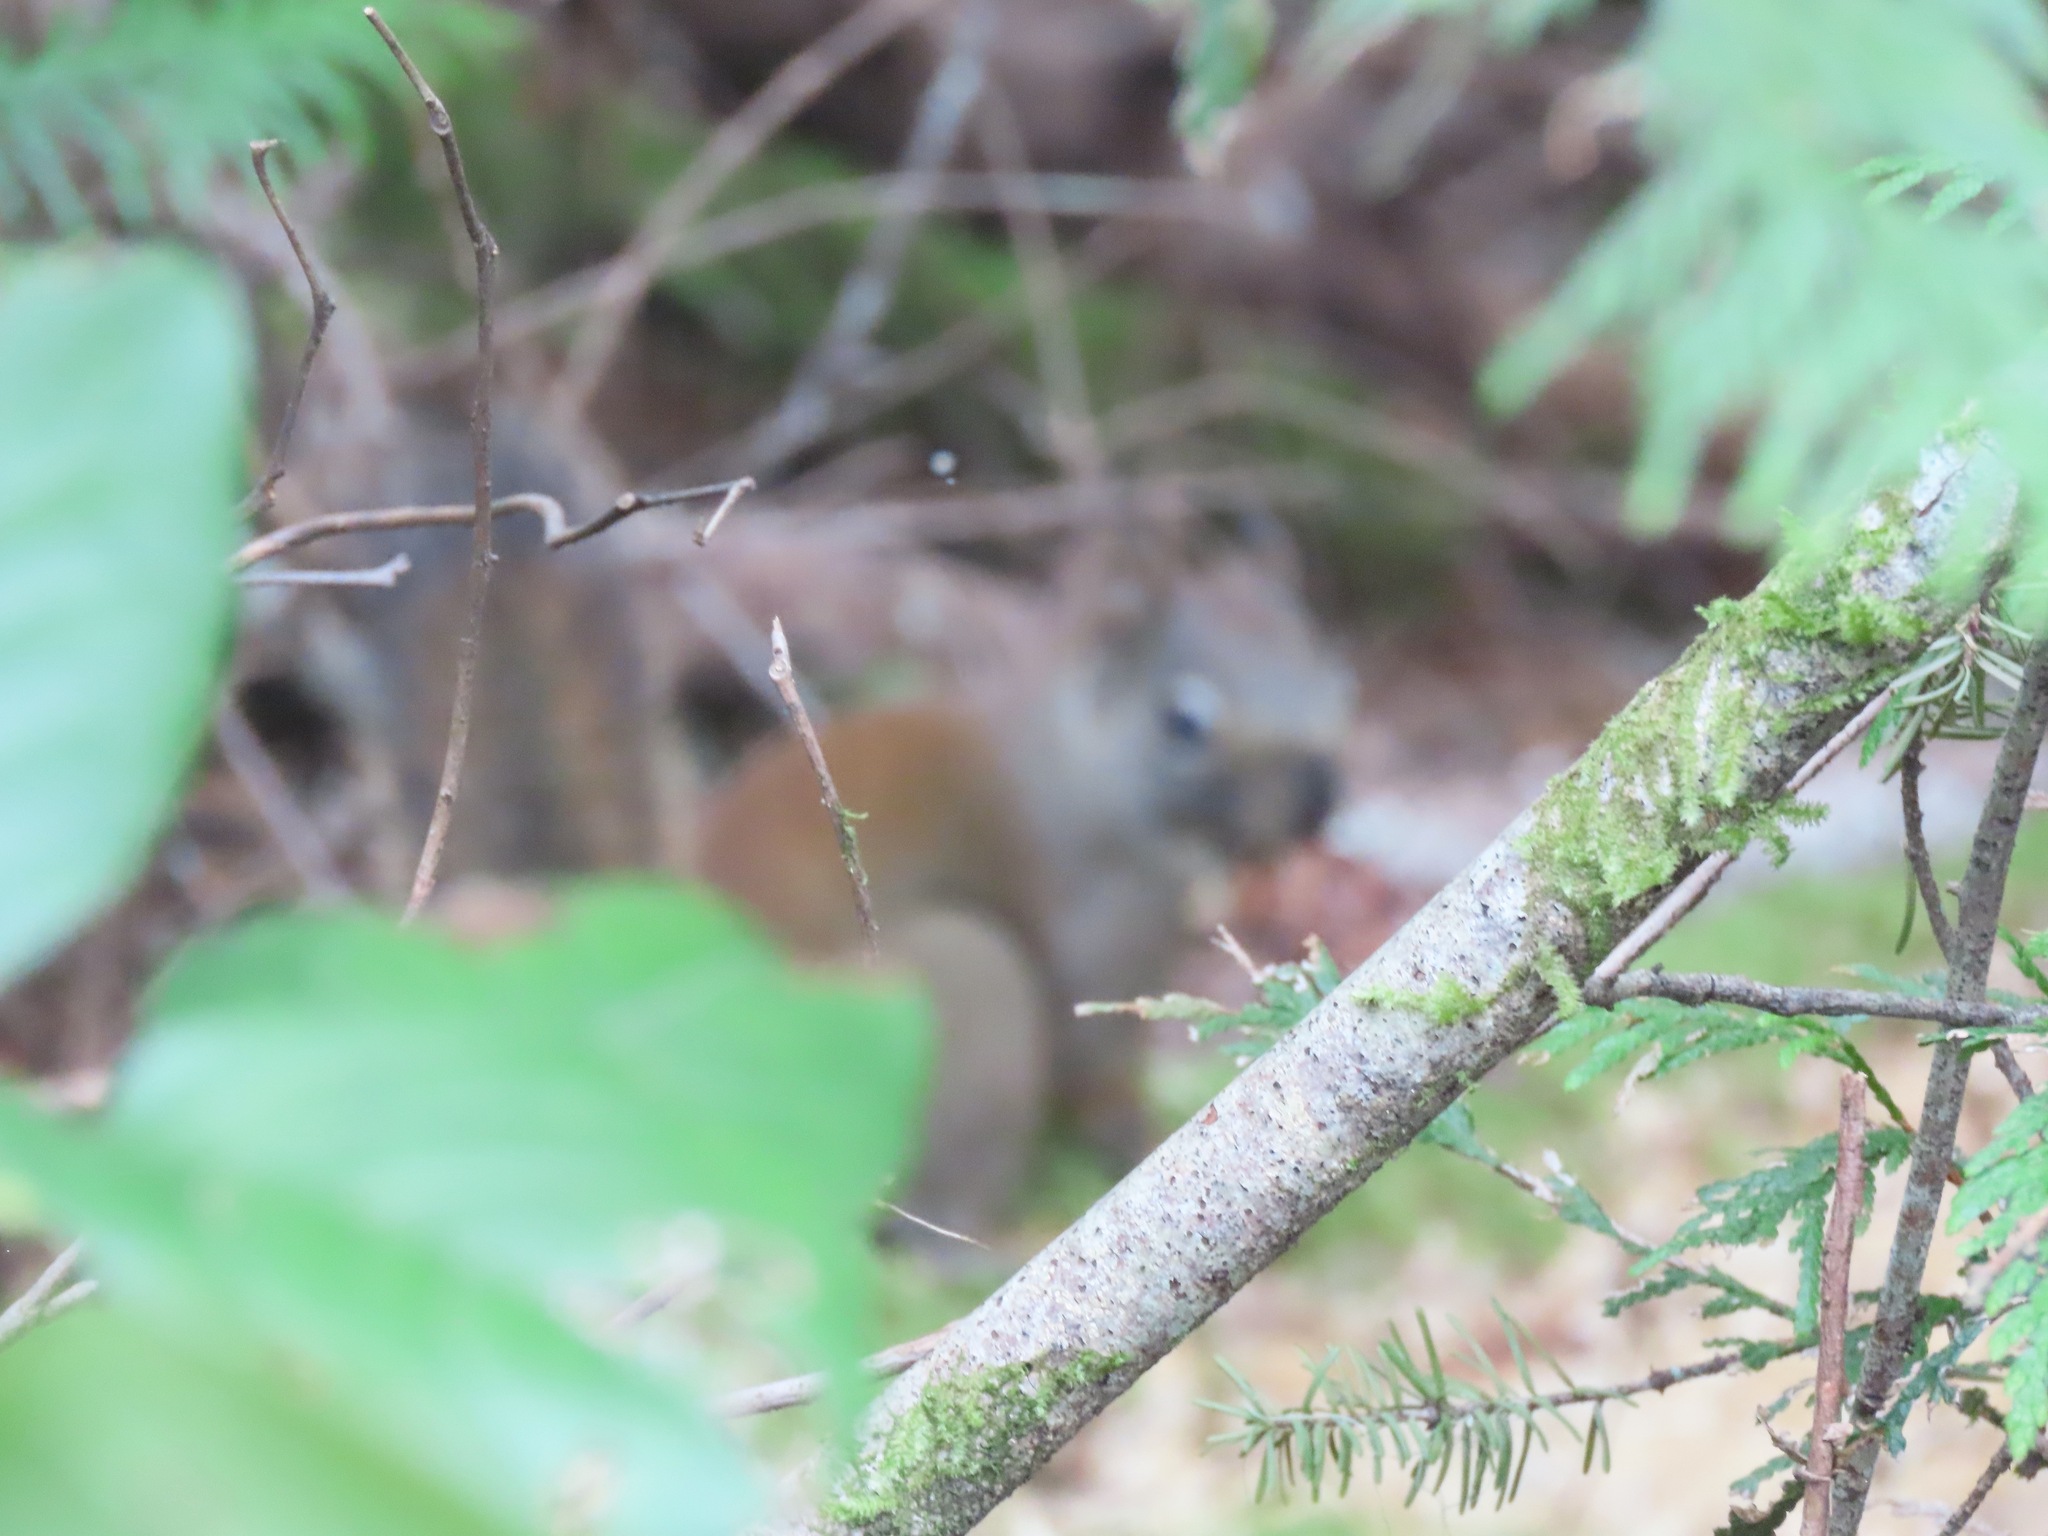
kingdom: Animalia
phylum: Chordata
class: Mammalia
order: Rodentia
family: Sciuridae
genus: Tamiasciurus
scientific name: Tamiasciurus hudsonicus
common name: Red squirrel
